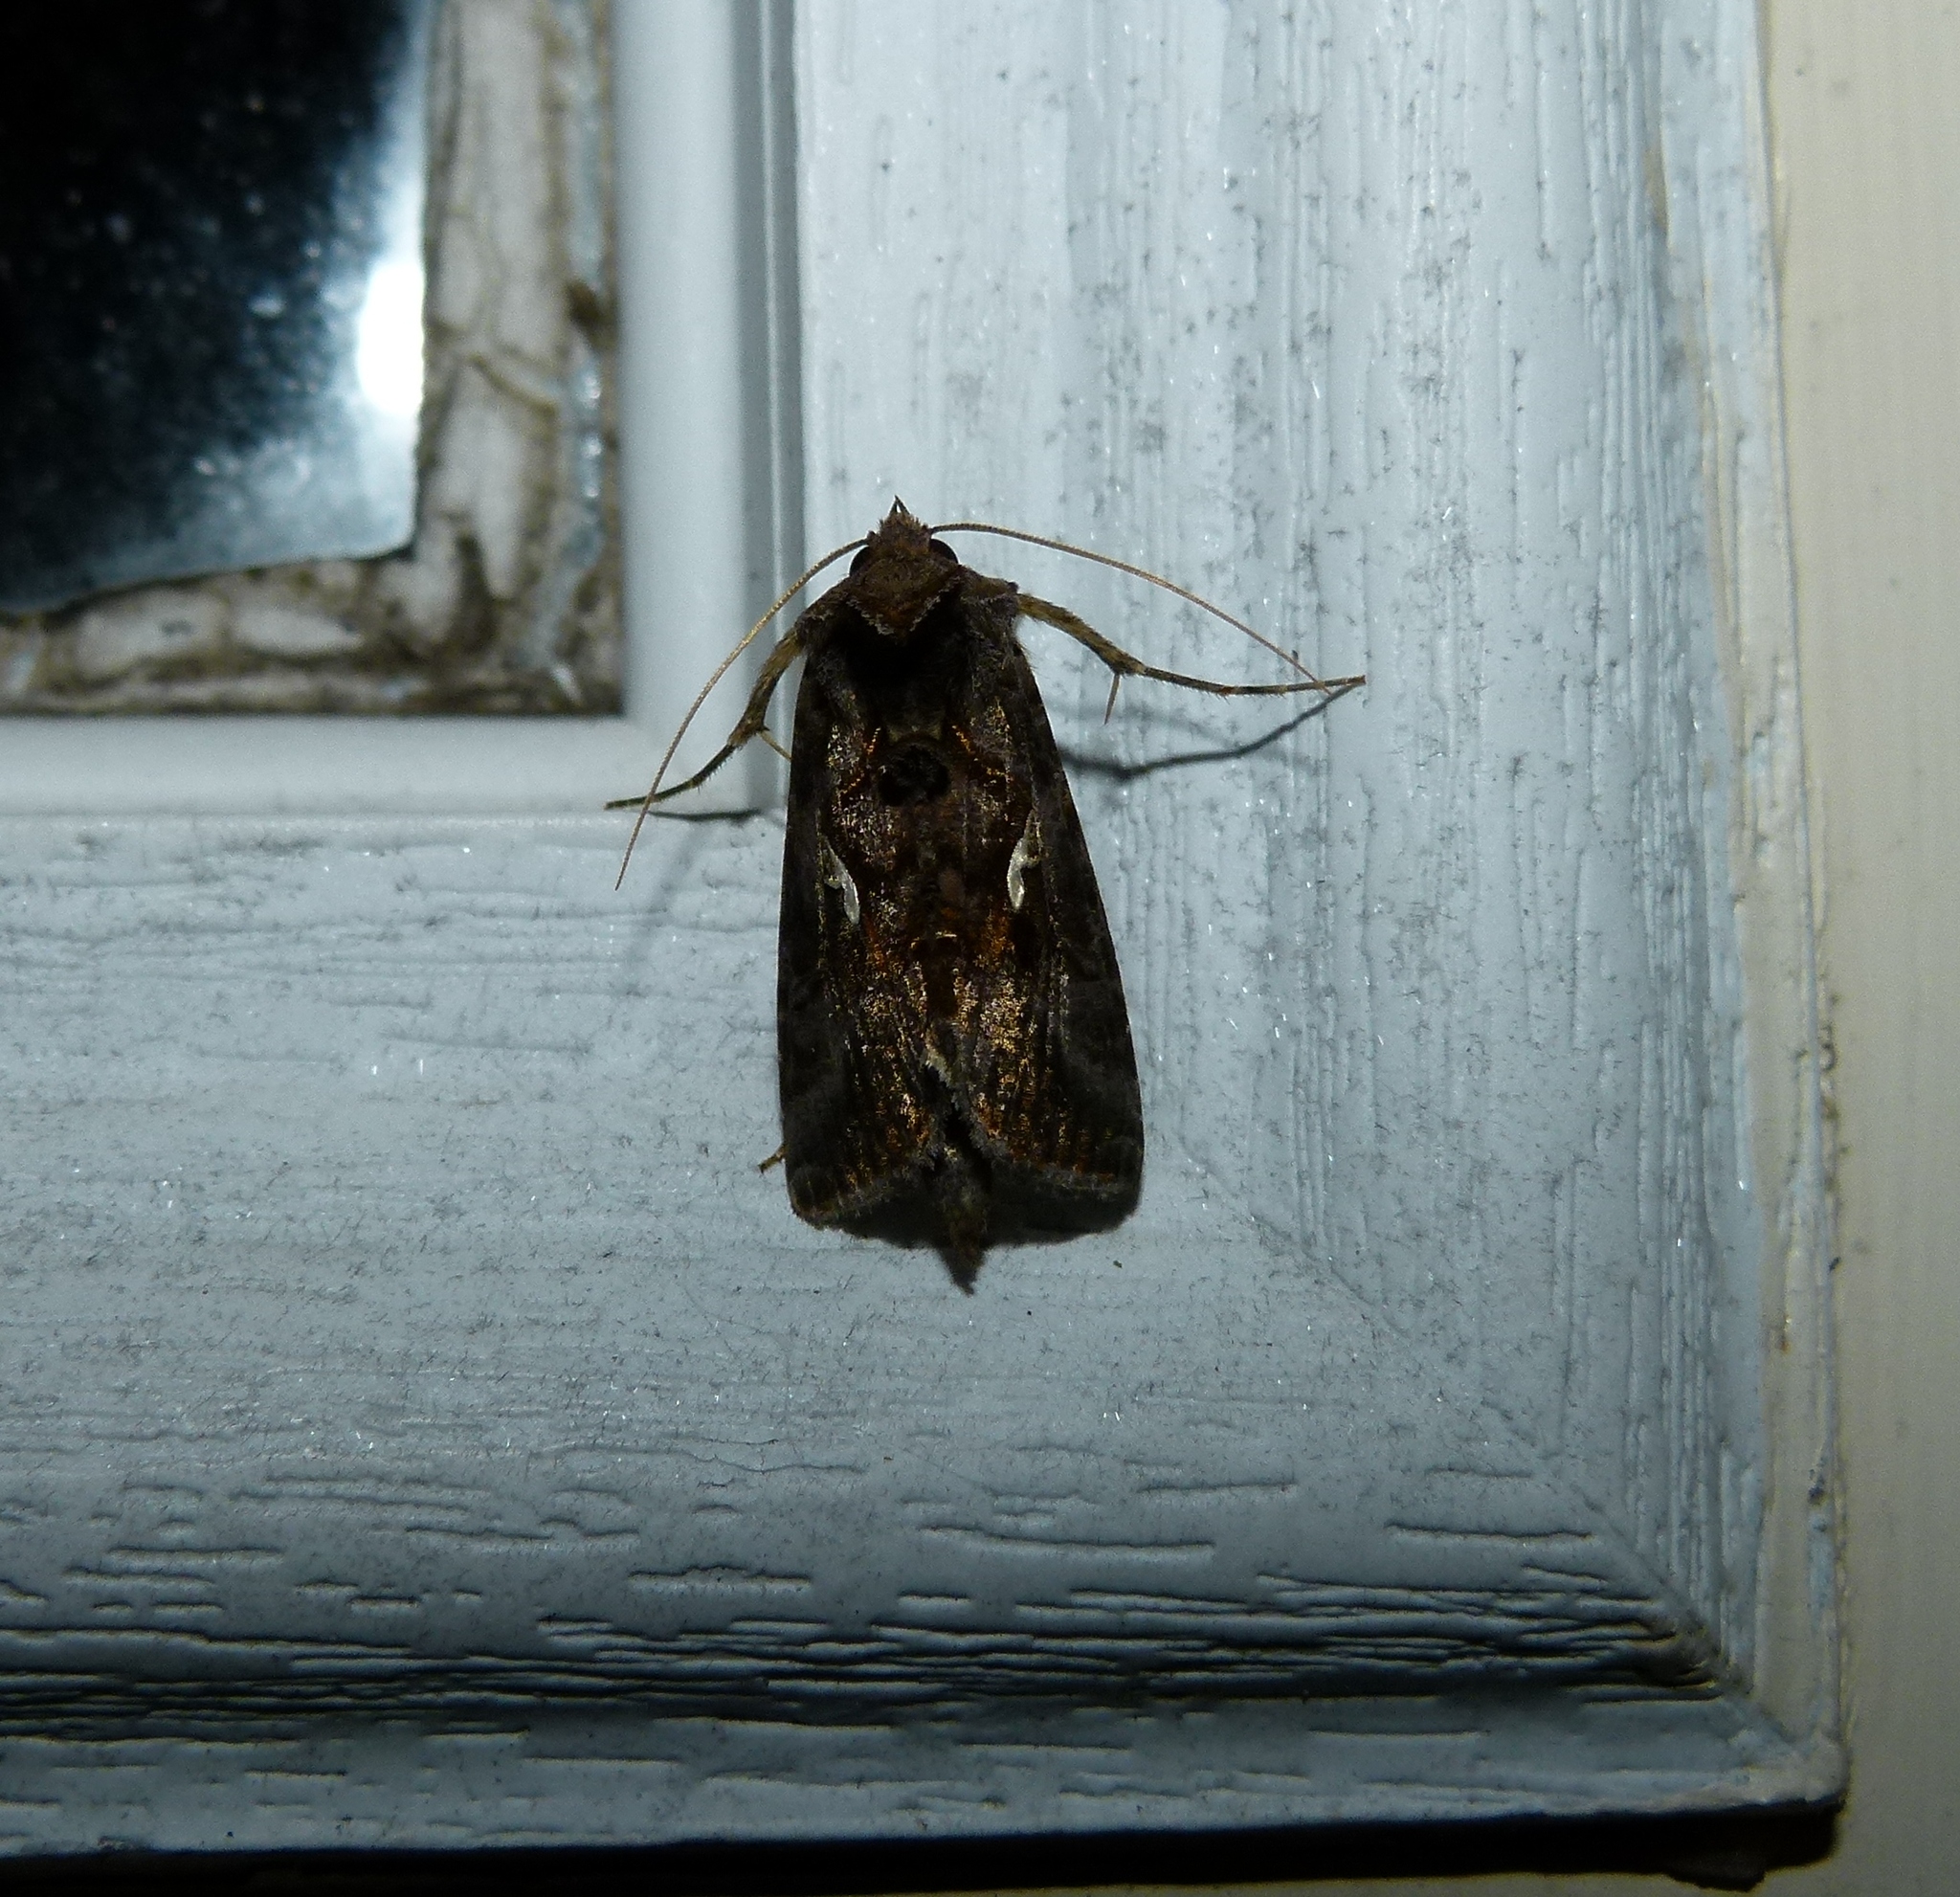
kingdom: Animalia
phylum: Arthropoda
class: Insecta
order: Lepidoptera
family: Noctuidae
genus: Autographa
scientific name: Autographa precationis
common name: Common looper moth
